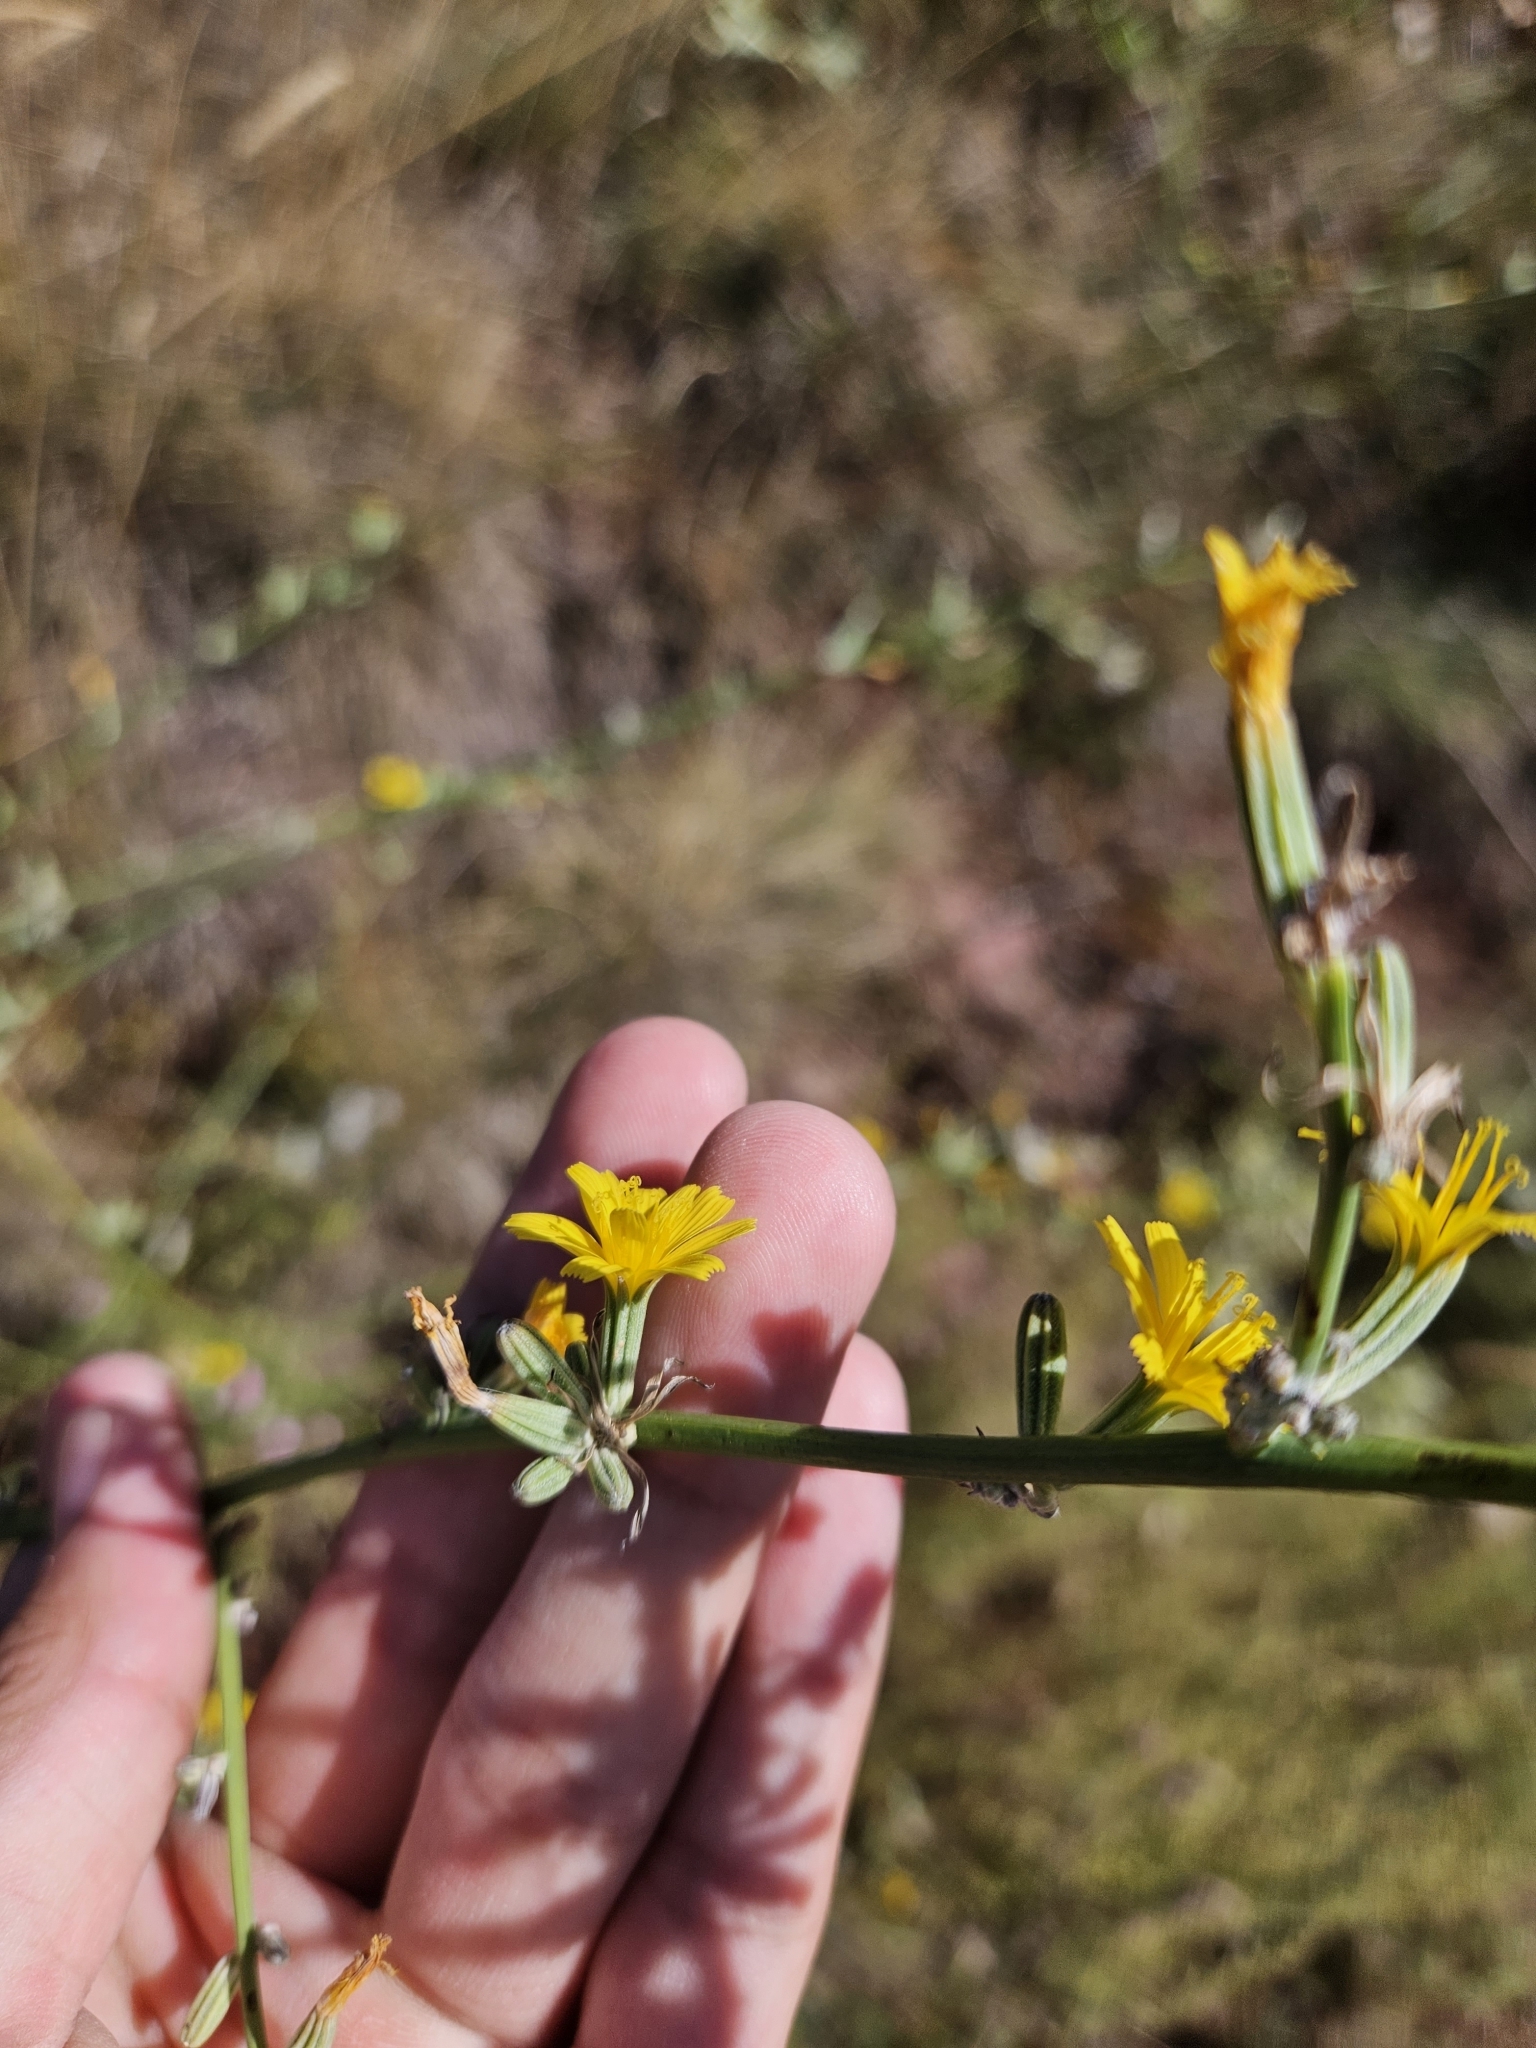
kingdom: Plantae
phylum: Tracheophyta
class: Magnoliopsida
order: Asterales
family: Asteraceae
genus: Chondrilla
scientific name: Chondrilla juncea
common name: Skeleton weed
